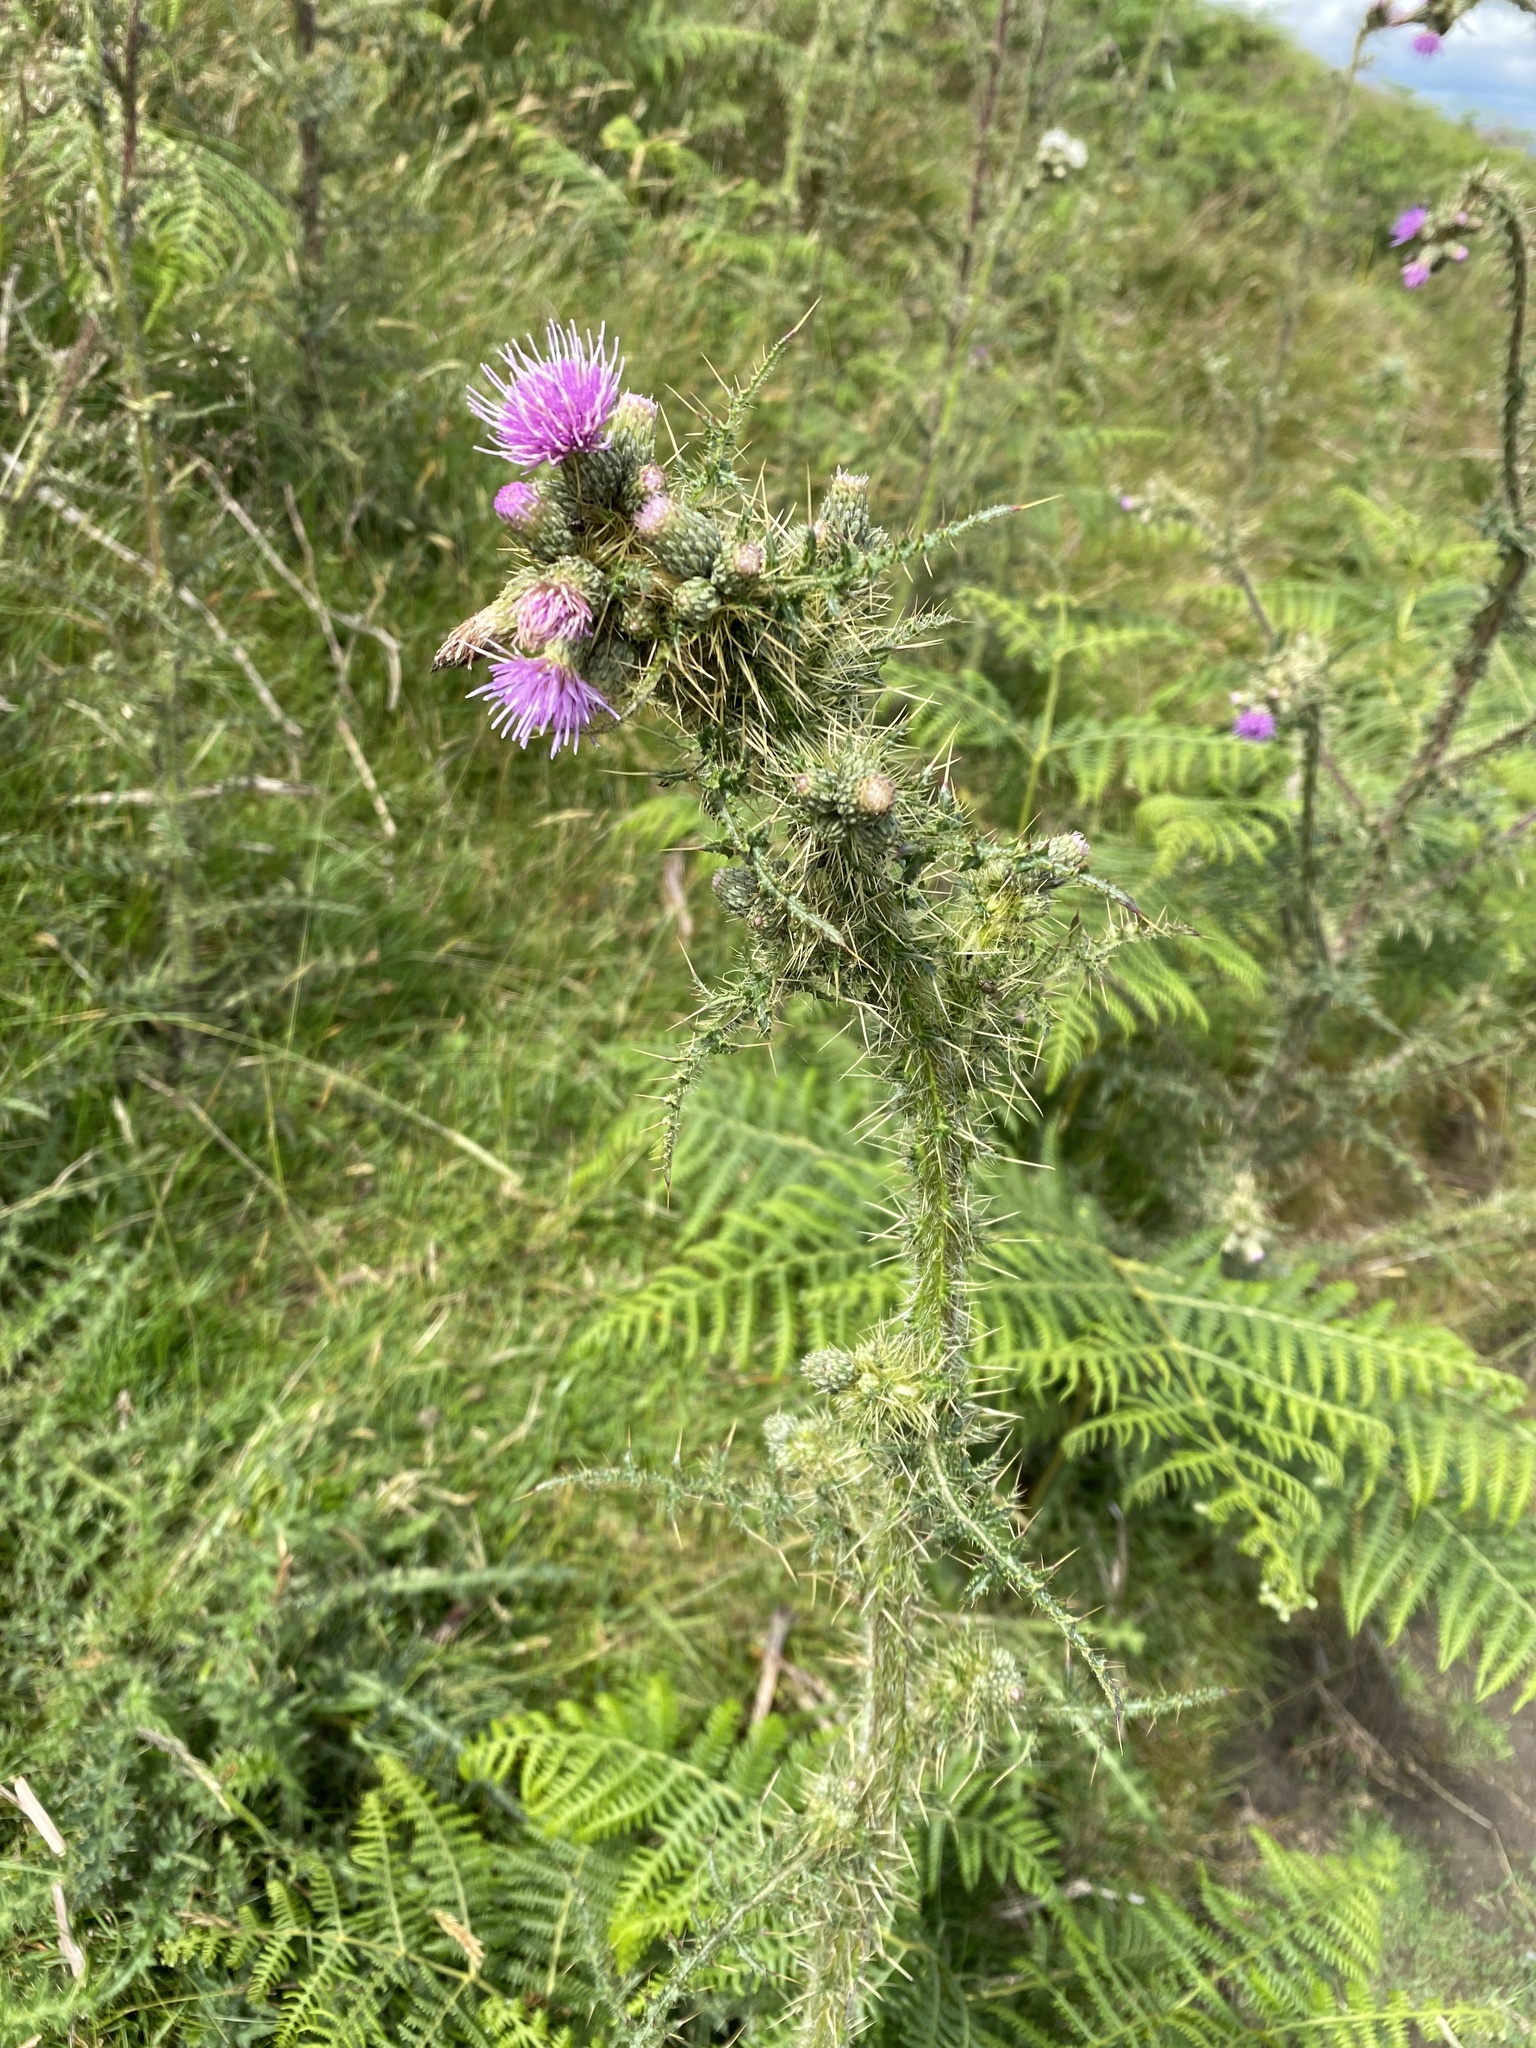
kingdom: Plantae
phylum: Tracheophyta
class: Magnoliopsida
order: Asterales
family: Asteraceae
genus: Cirsium
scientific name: Cirsium palustre
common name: Marsh thistle
